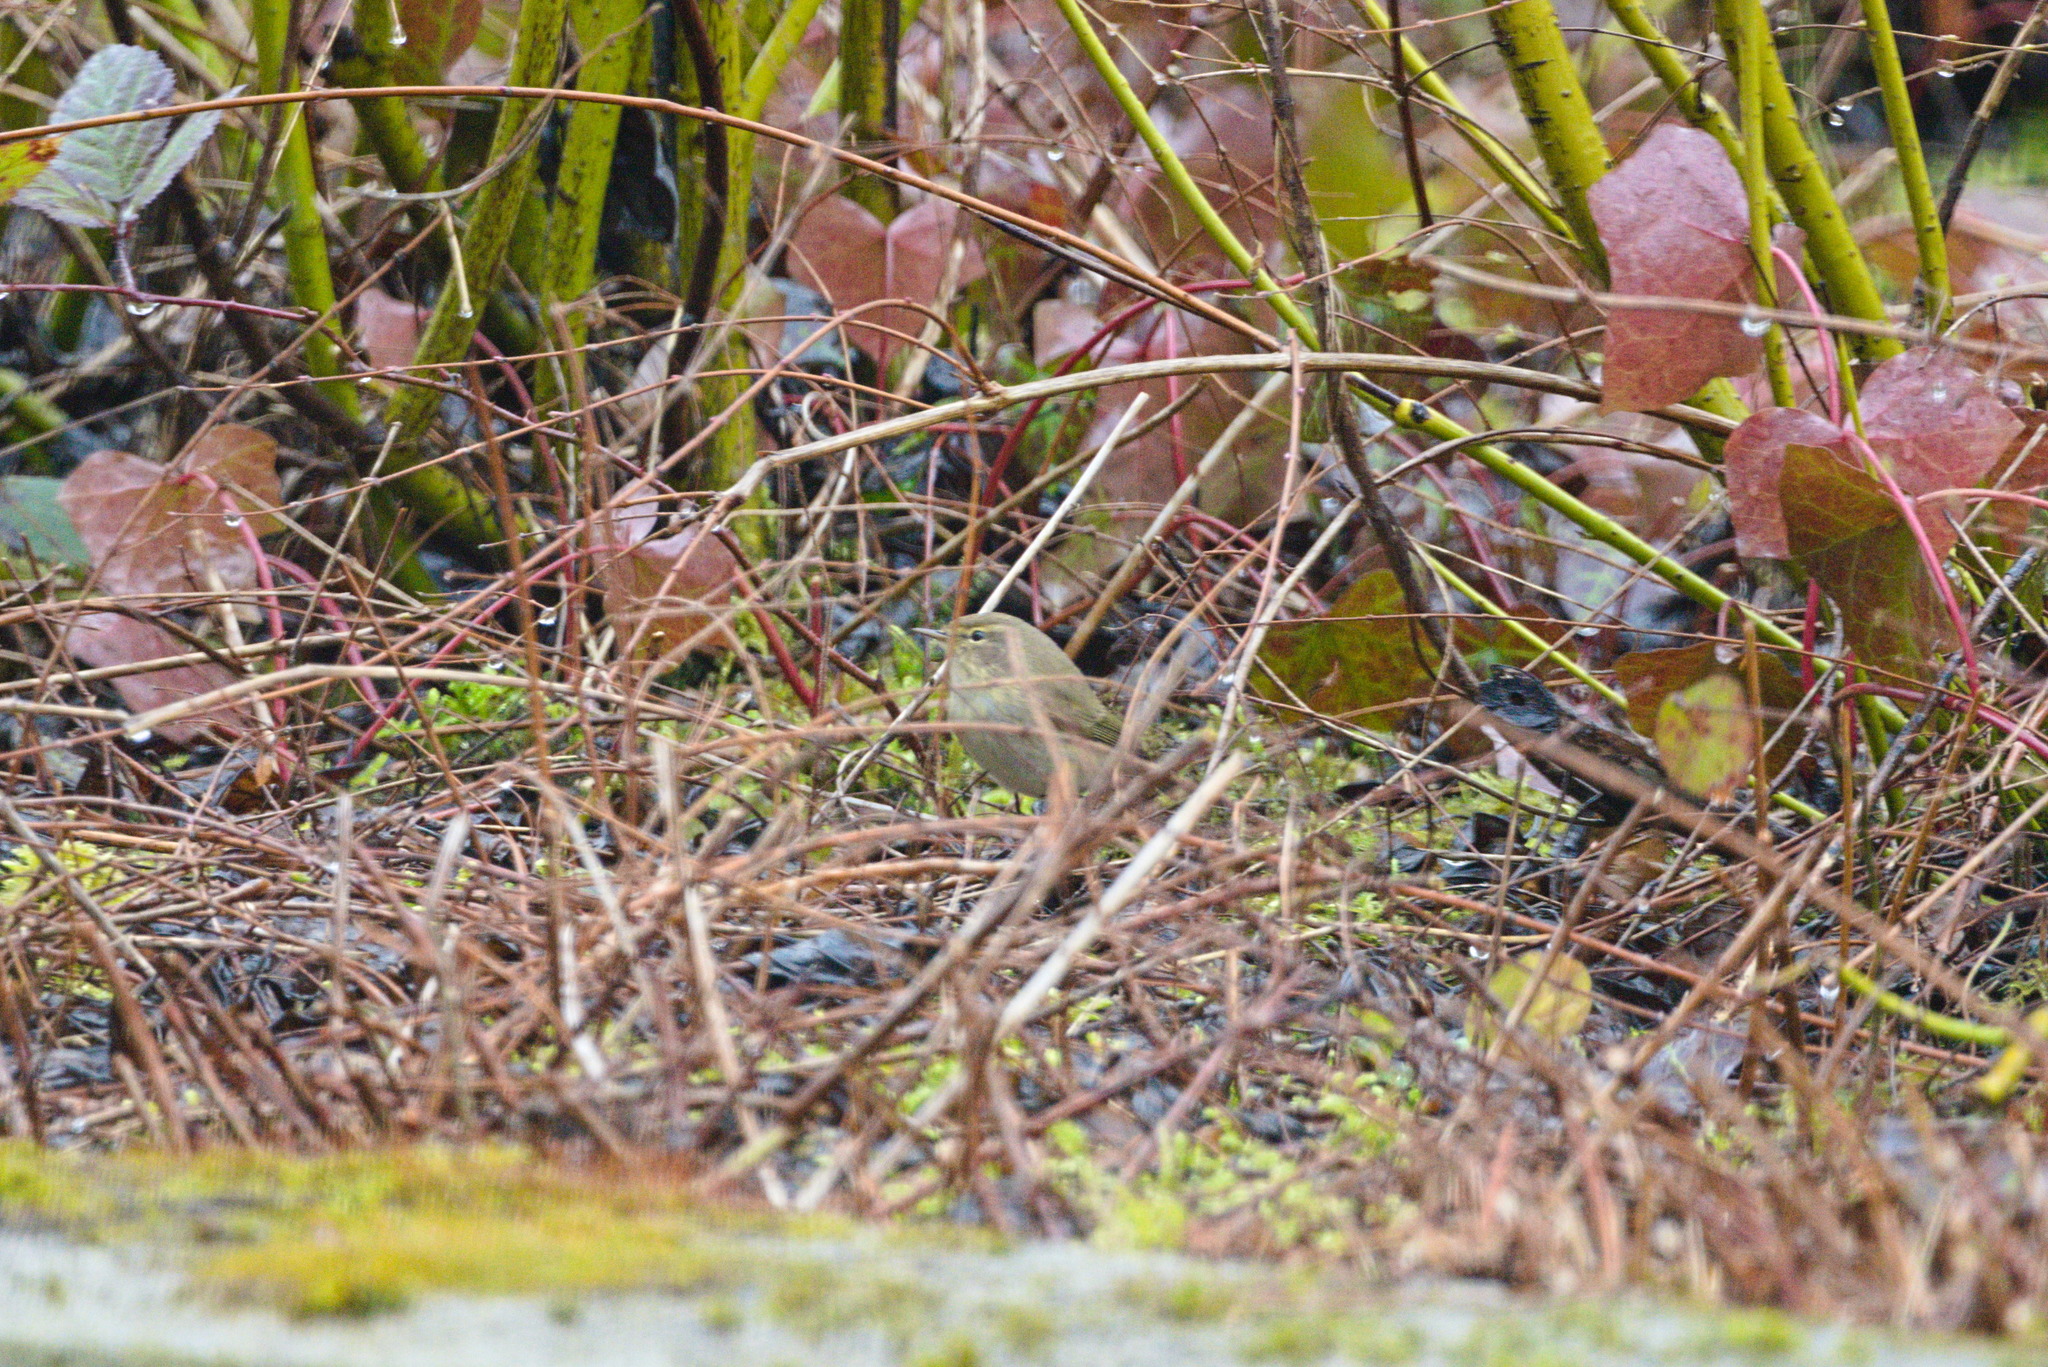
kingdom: Animalia
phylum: Chordata
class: Aves
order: Passeriformes
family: Phylloscopidae
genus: Phylloscopus
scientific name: Phylloscopus collybita
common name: Common chiffchaff
